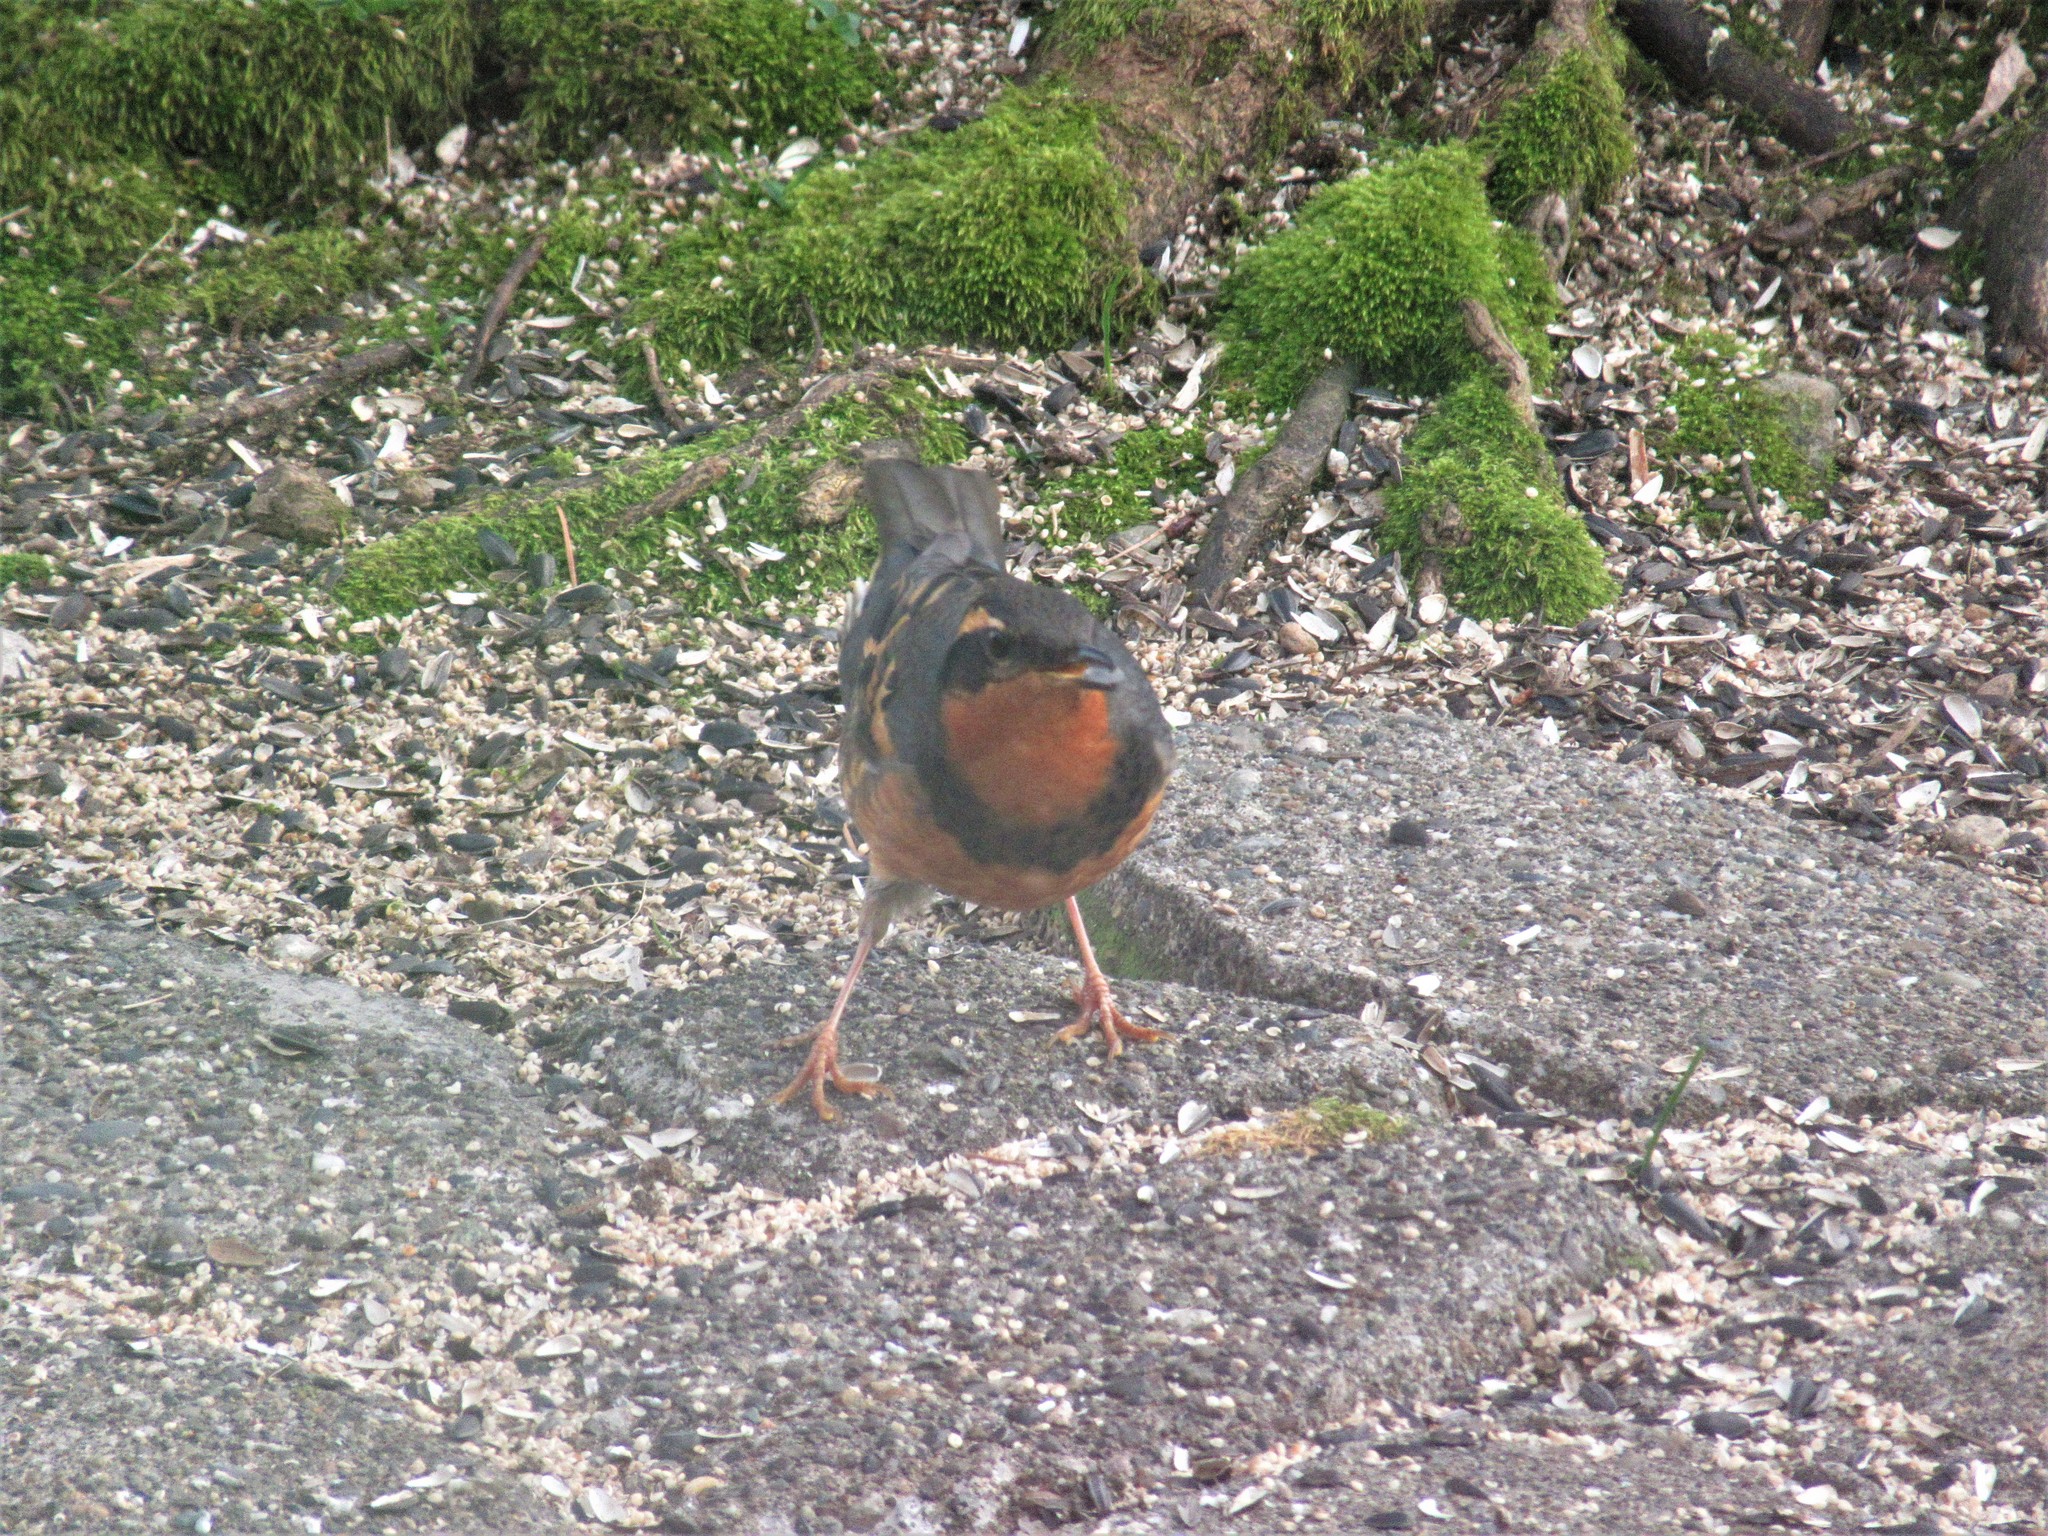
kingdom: Animalia
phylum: Chordata
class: Aves
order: Passeriformes
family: Turdidae
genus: Ixoreus
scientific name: Ixoreus naevius
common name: Varied thrush
